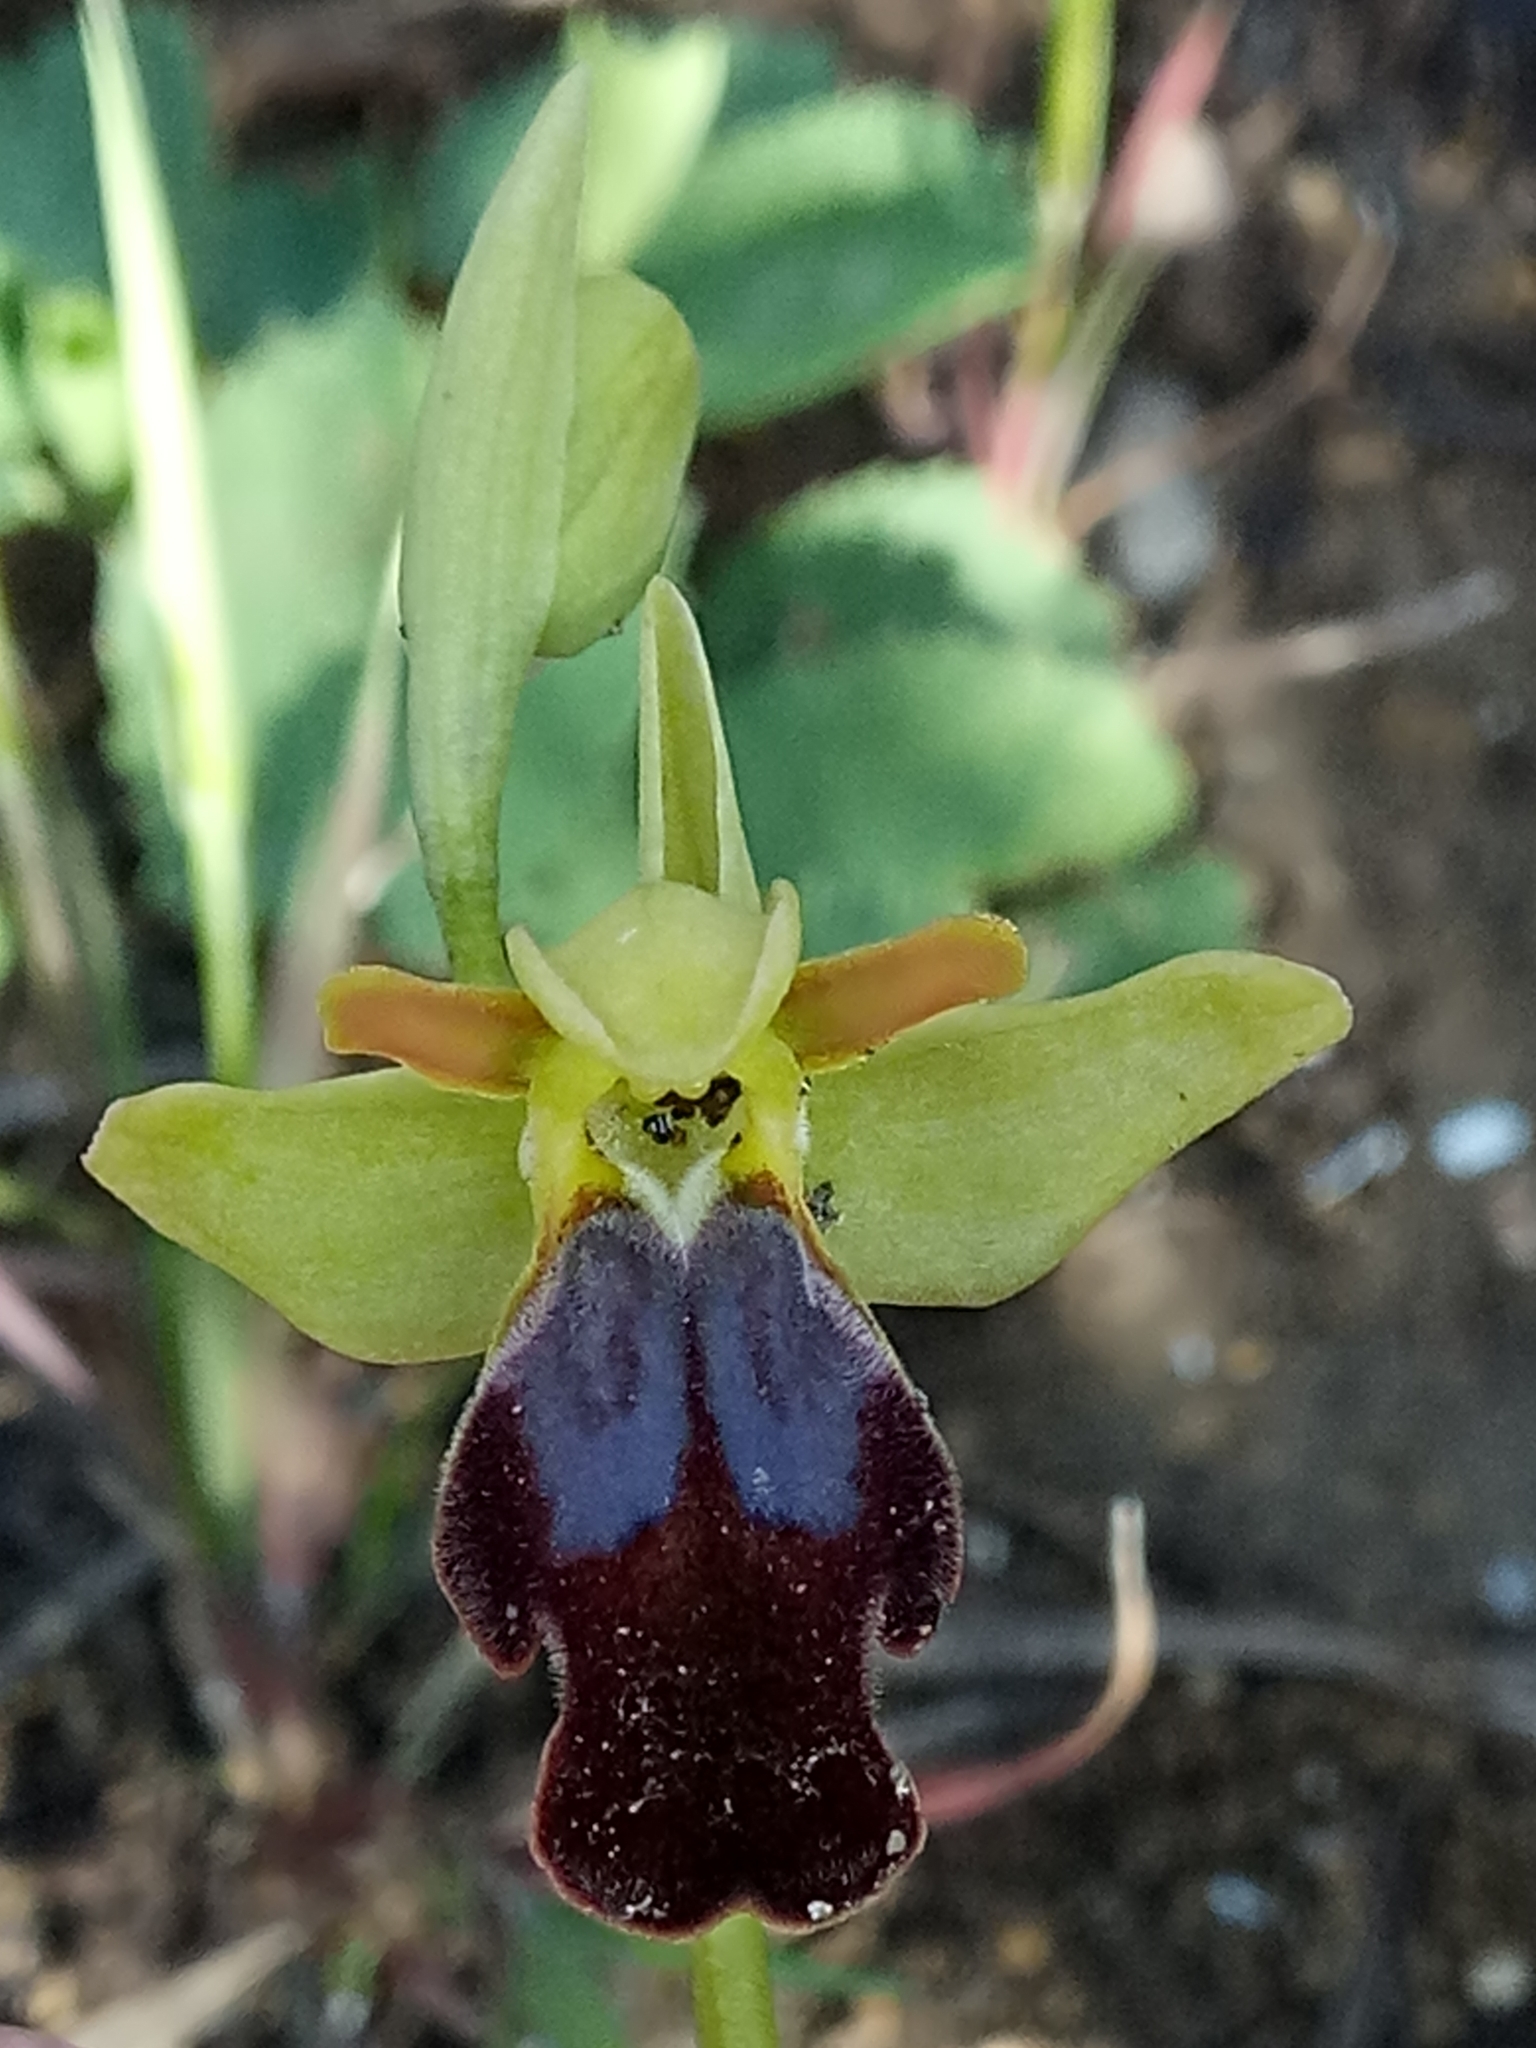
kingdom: Plantae
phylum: Tracheophyta
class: Liliopsida
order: Asparagales
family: Orchidaceae
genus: Ophrys
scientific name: Ophrys fusca
